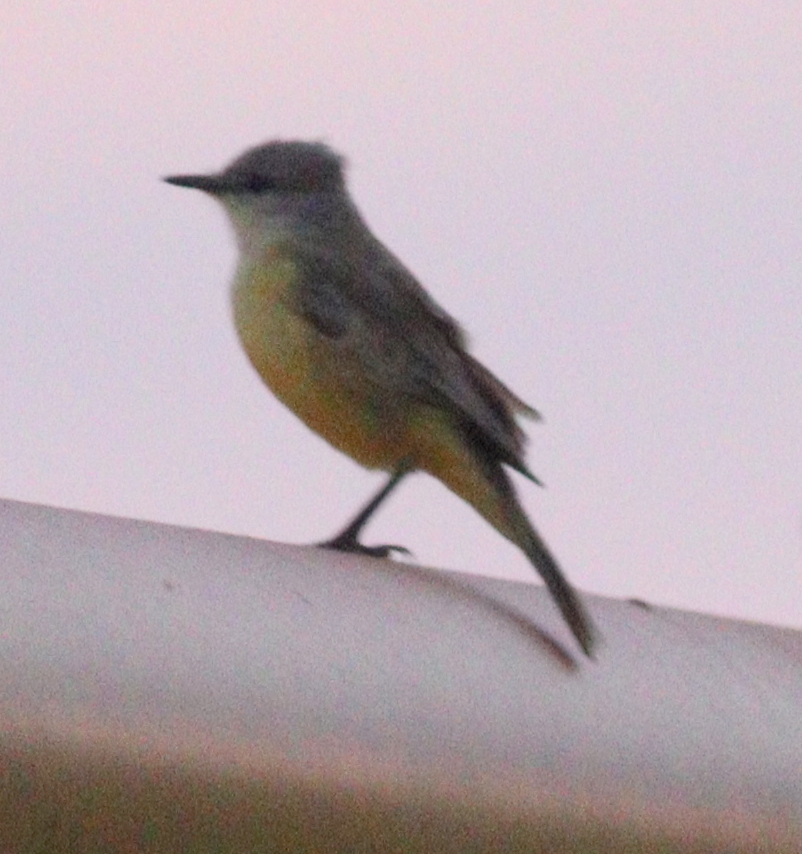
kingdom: Animalia
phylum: Chordata
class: Aves
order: Passeriformes
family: Tyrannidae
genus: Machetornis
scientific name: Machetornis rixosa
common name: Cattle tyrant
